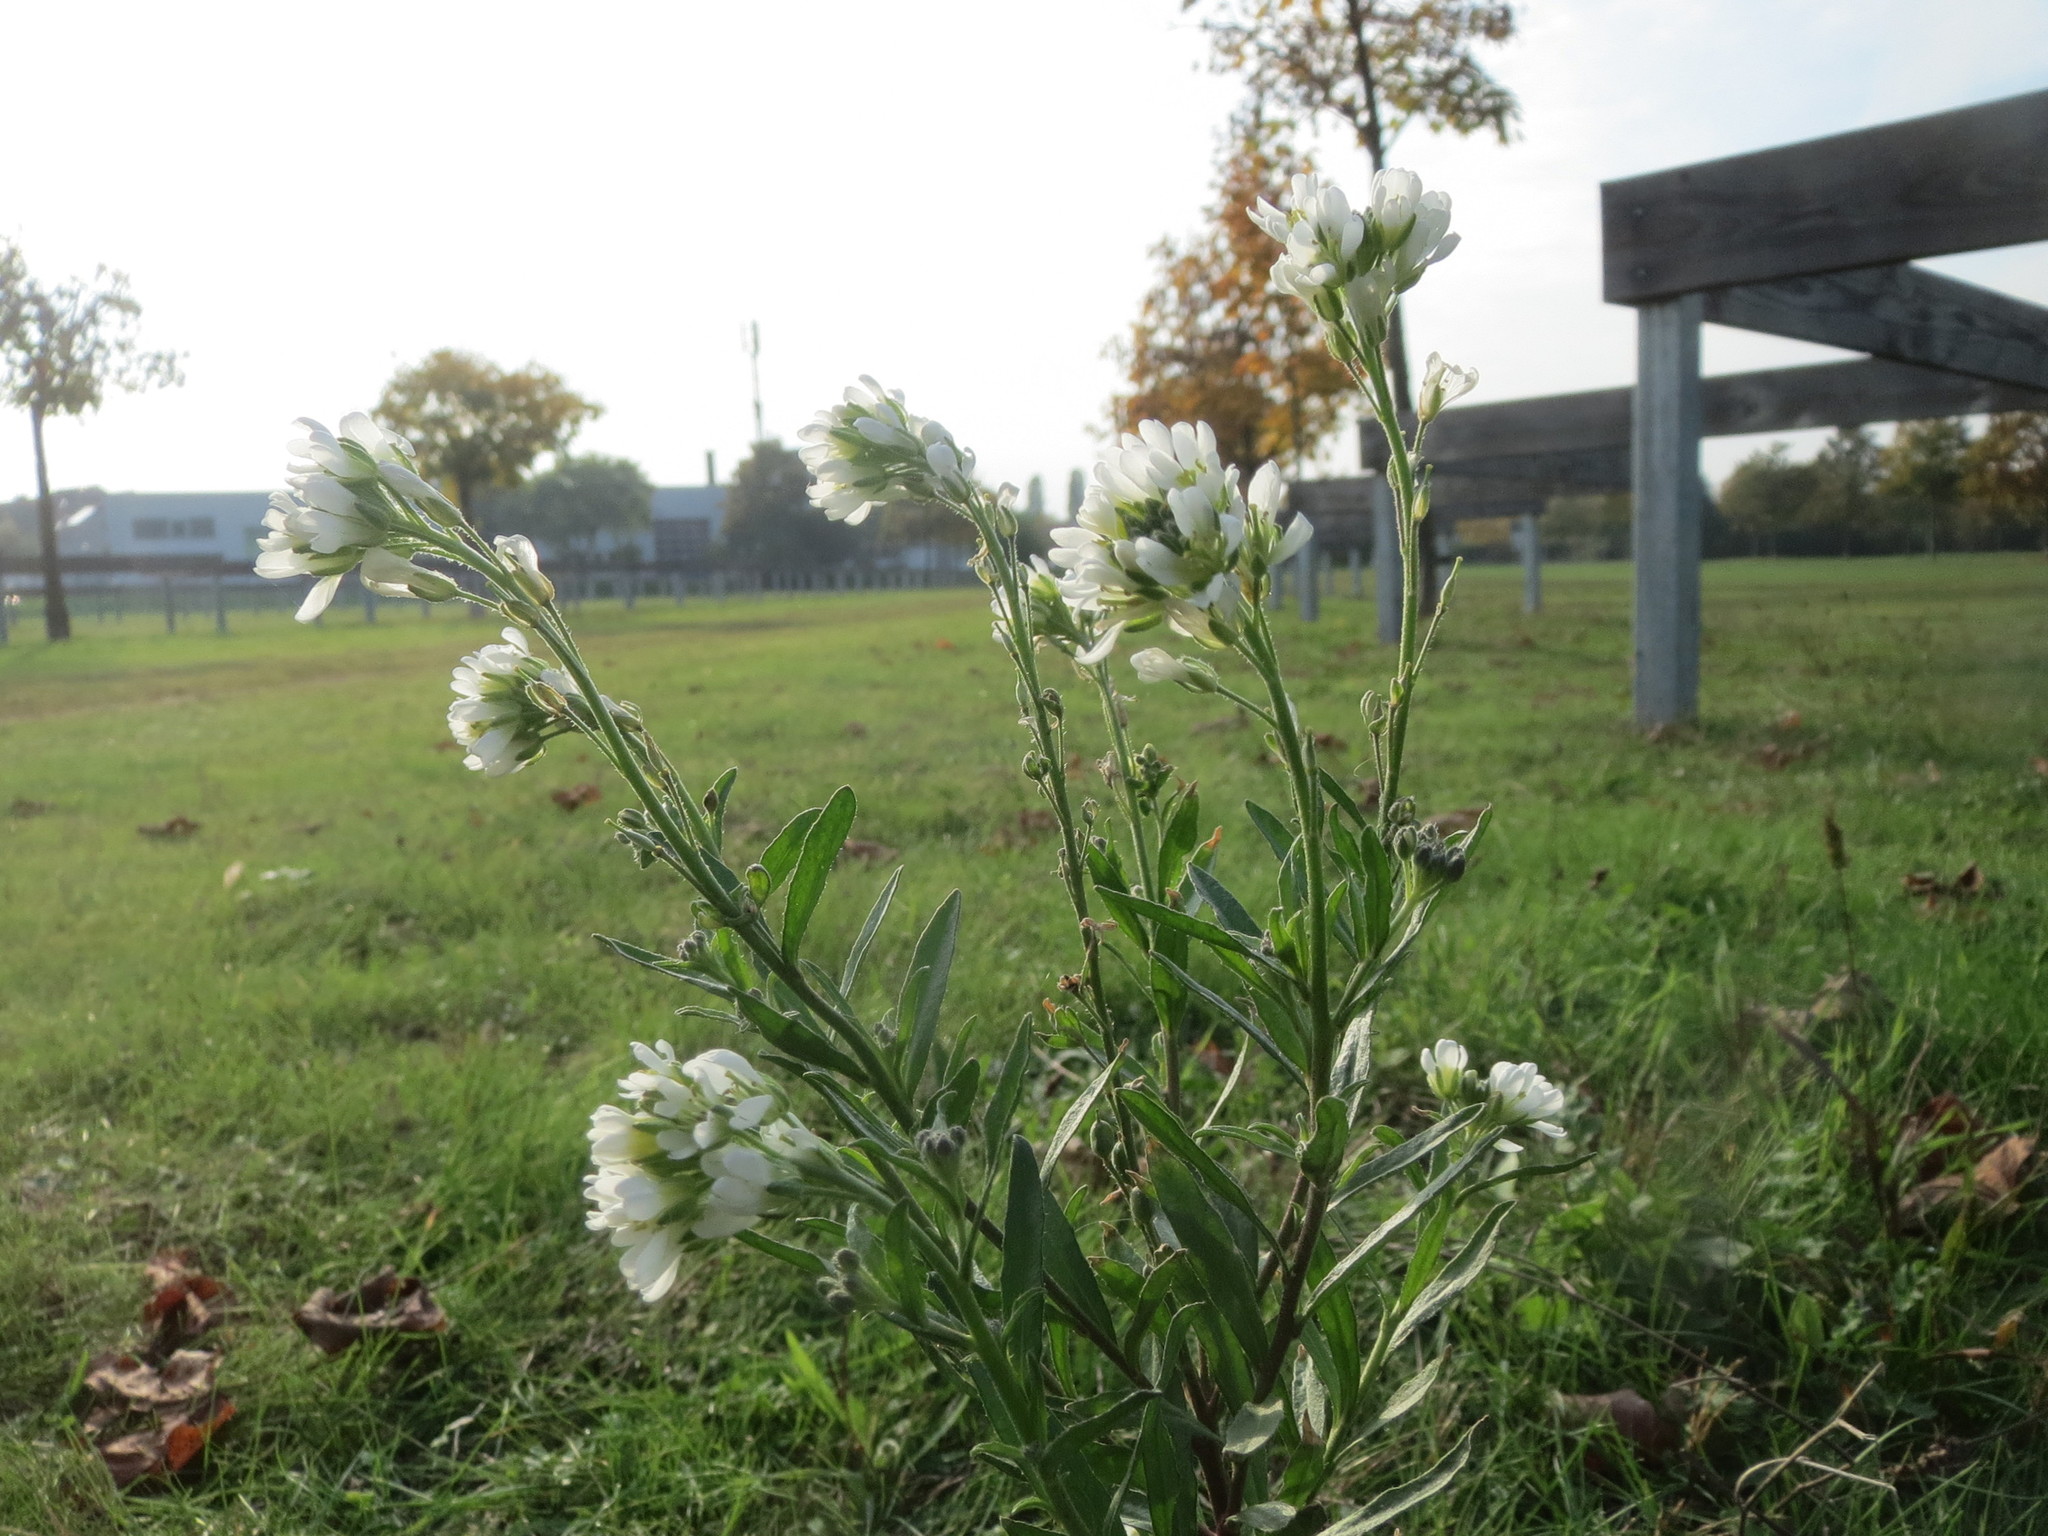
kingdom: Plantae
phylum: Tracheophyta
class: Magnoliopsida
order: Brassicales
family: Brassicaceae
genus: Berteroa
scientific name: Berteroa incana
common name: Hoary alison
